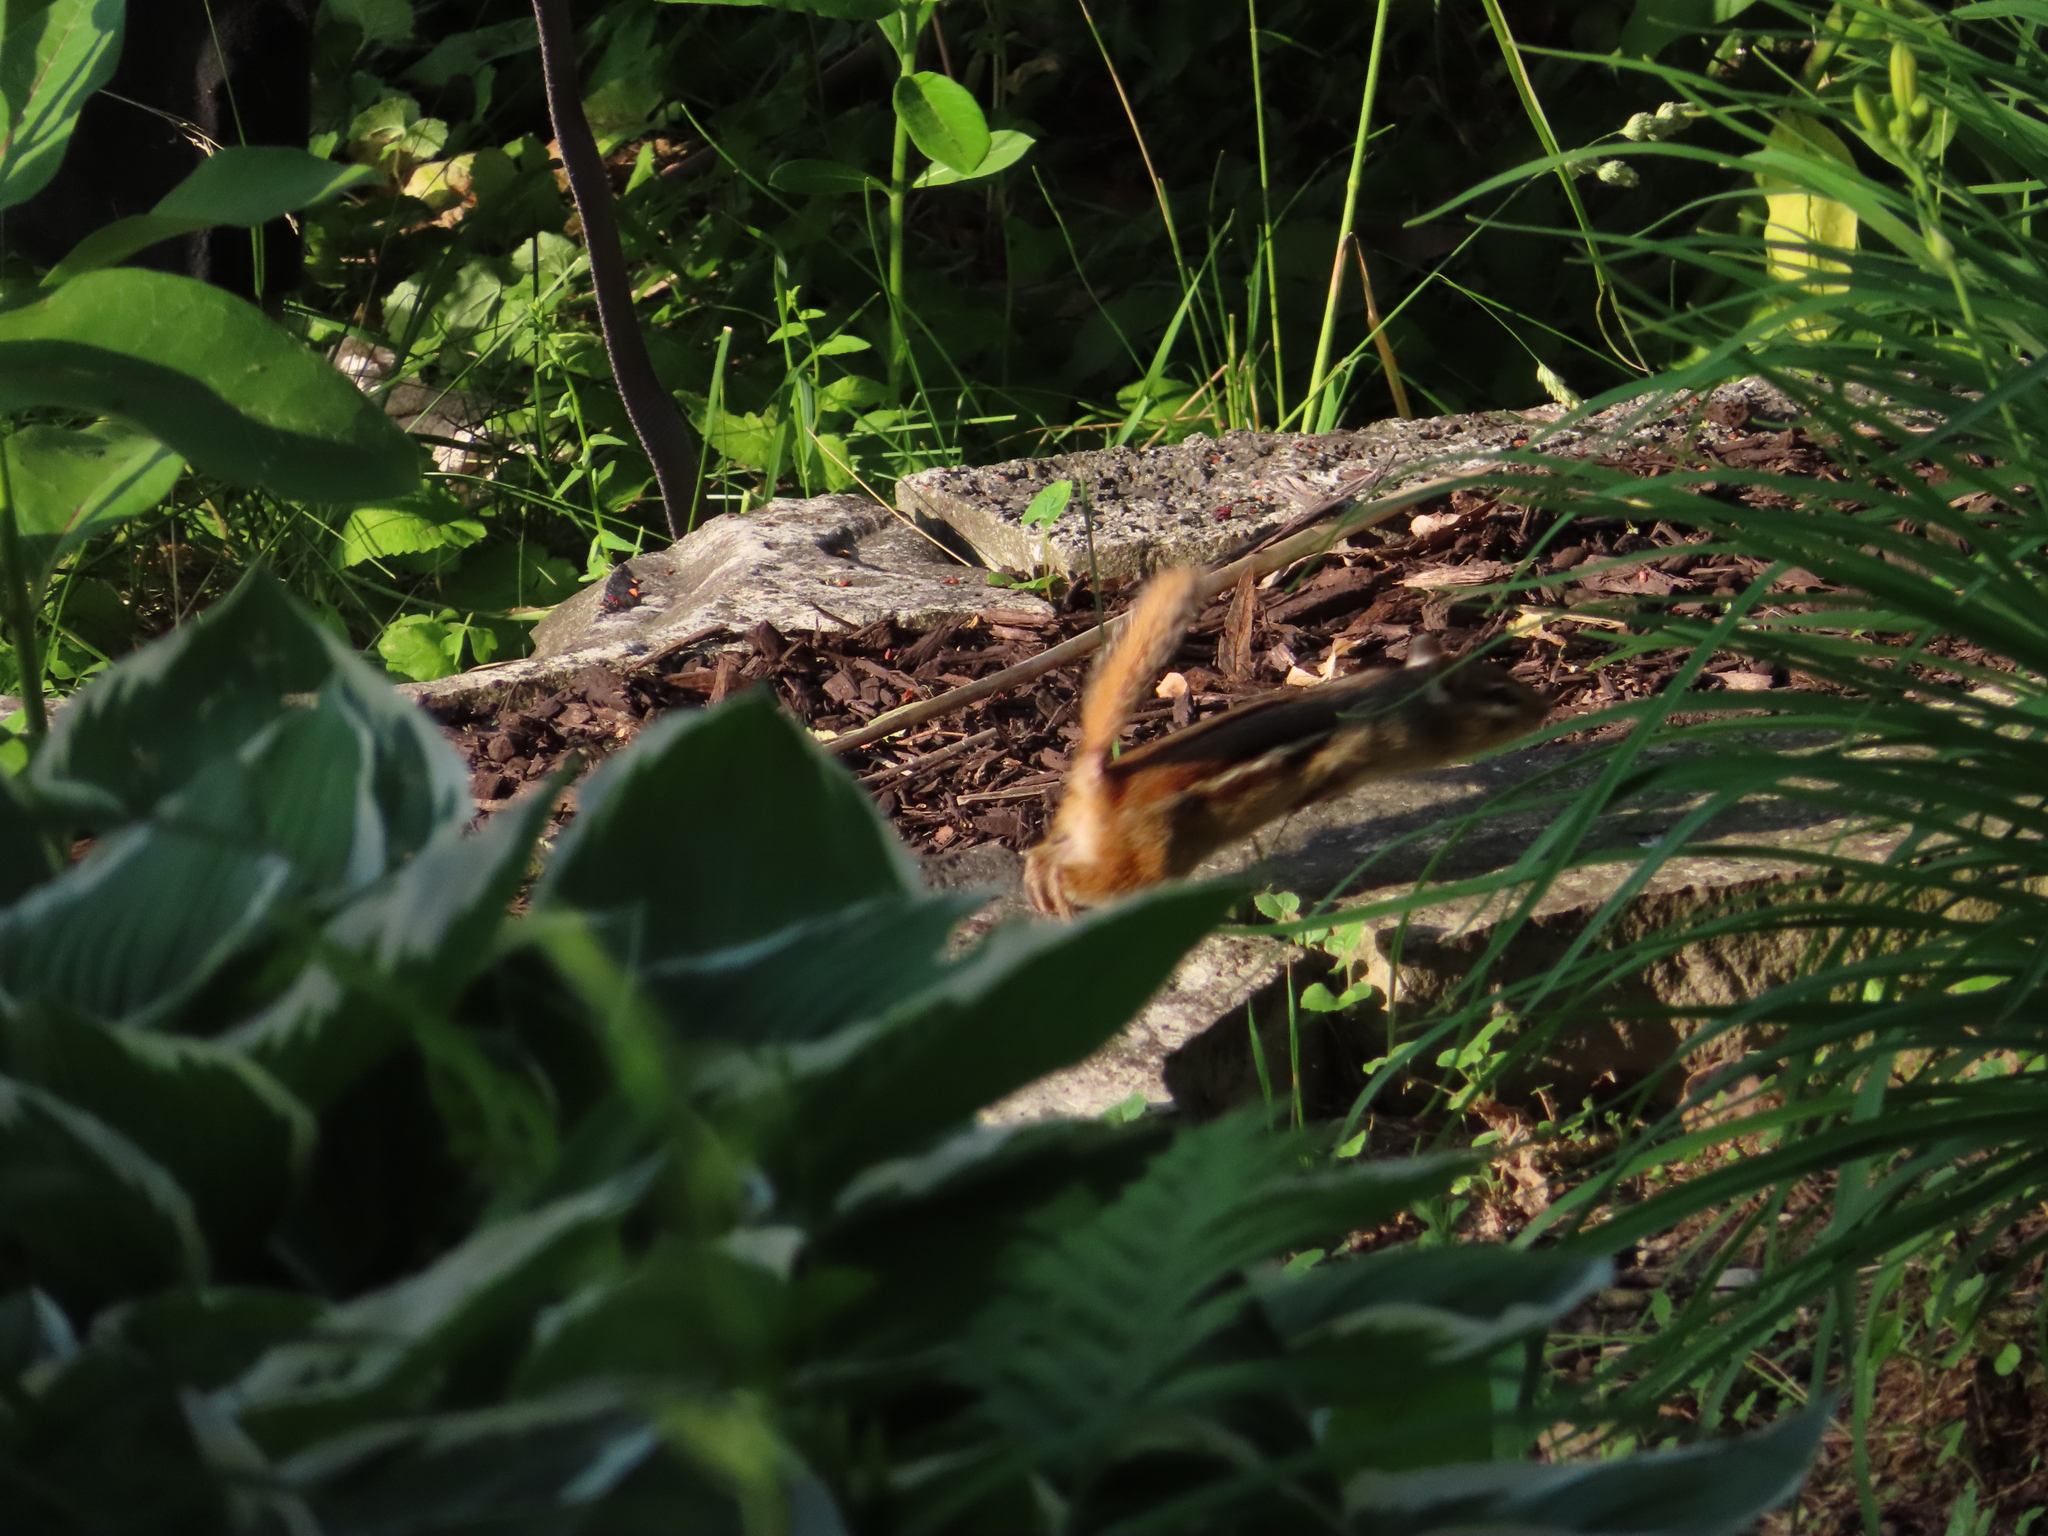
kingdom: Animalia
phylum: Chordata
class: Mammalia
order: Rodentia
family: Sciuridae
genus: Tamias
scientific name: Tamias striatus
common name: Eastern chipmunk
